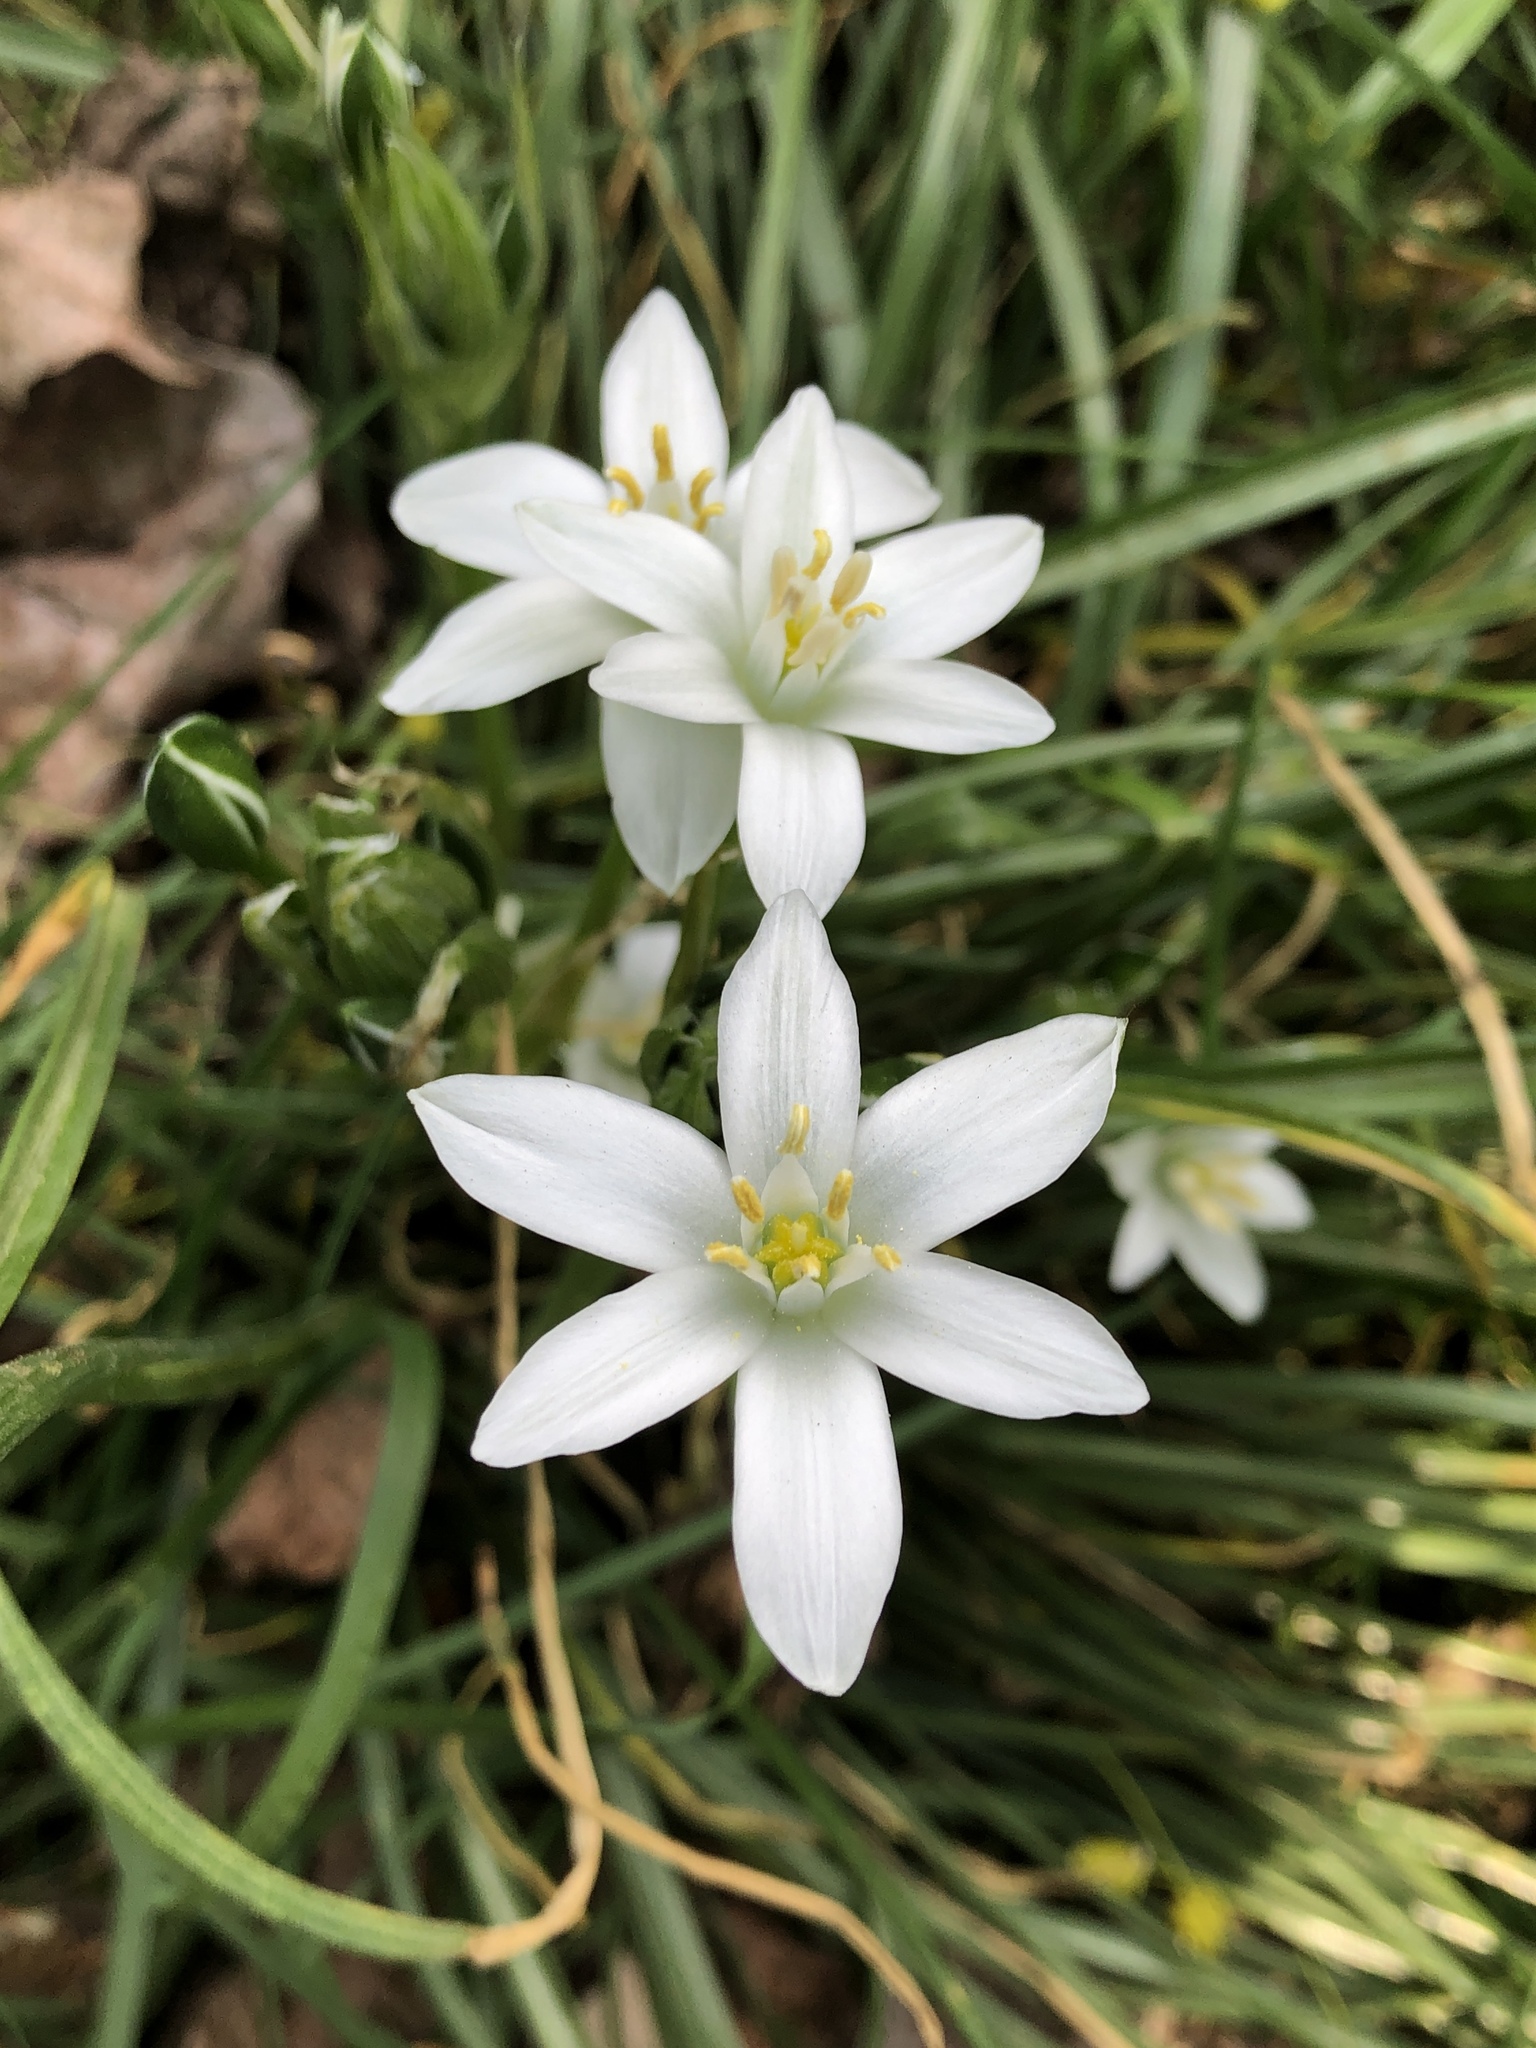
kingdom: Plantae
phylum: Tracheophyta
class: Liliopsida
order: Asparagales
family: Asparagaceae
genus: Ornithogalum
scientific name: Ornithogalum umbellatum
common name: Garden star-of-bethlehem
